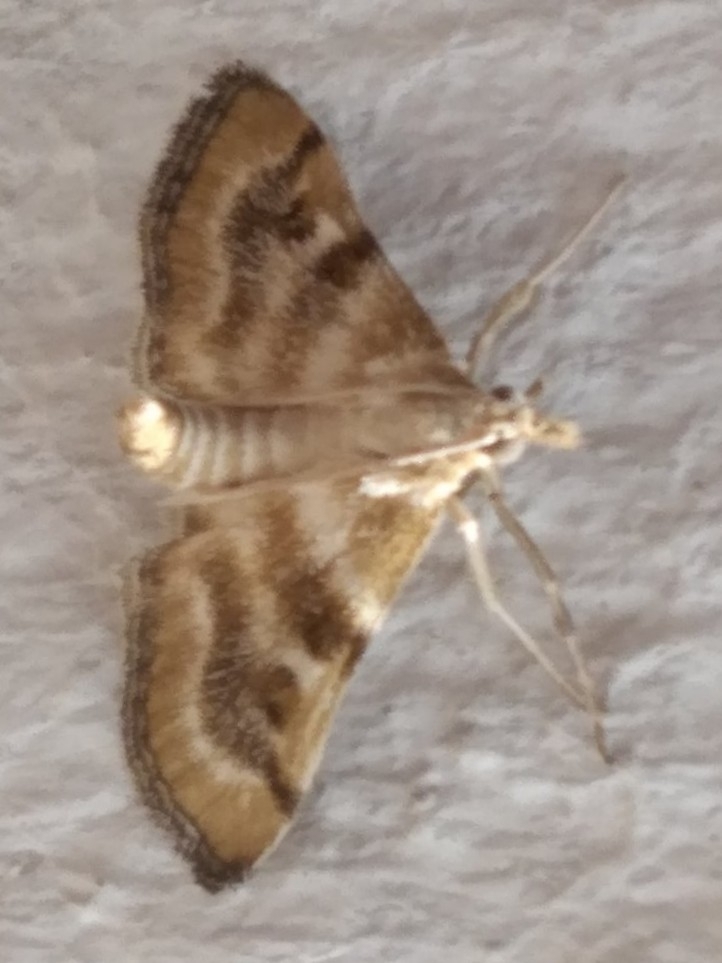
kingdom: Animalia
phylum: Arthropoda
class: Insecta
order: Lepidoptera
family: Crambidae
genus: Metasia
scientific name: Metasia suppandalis
